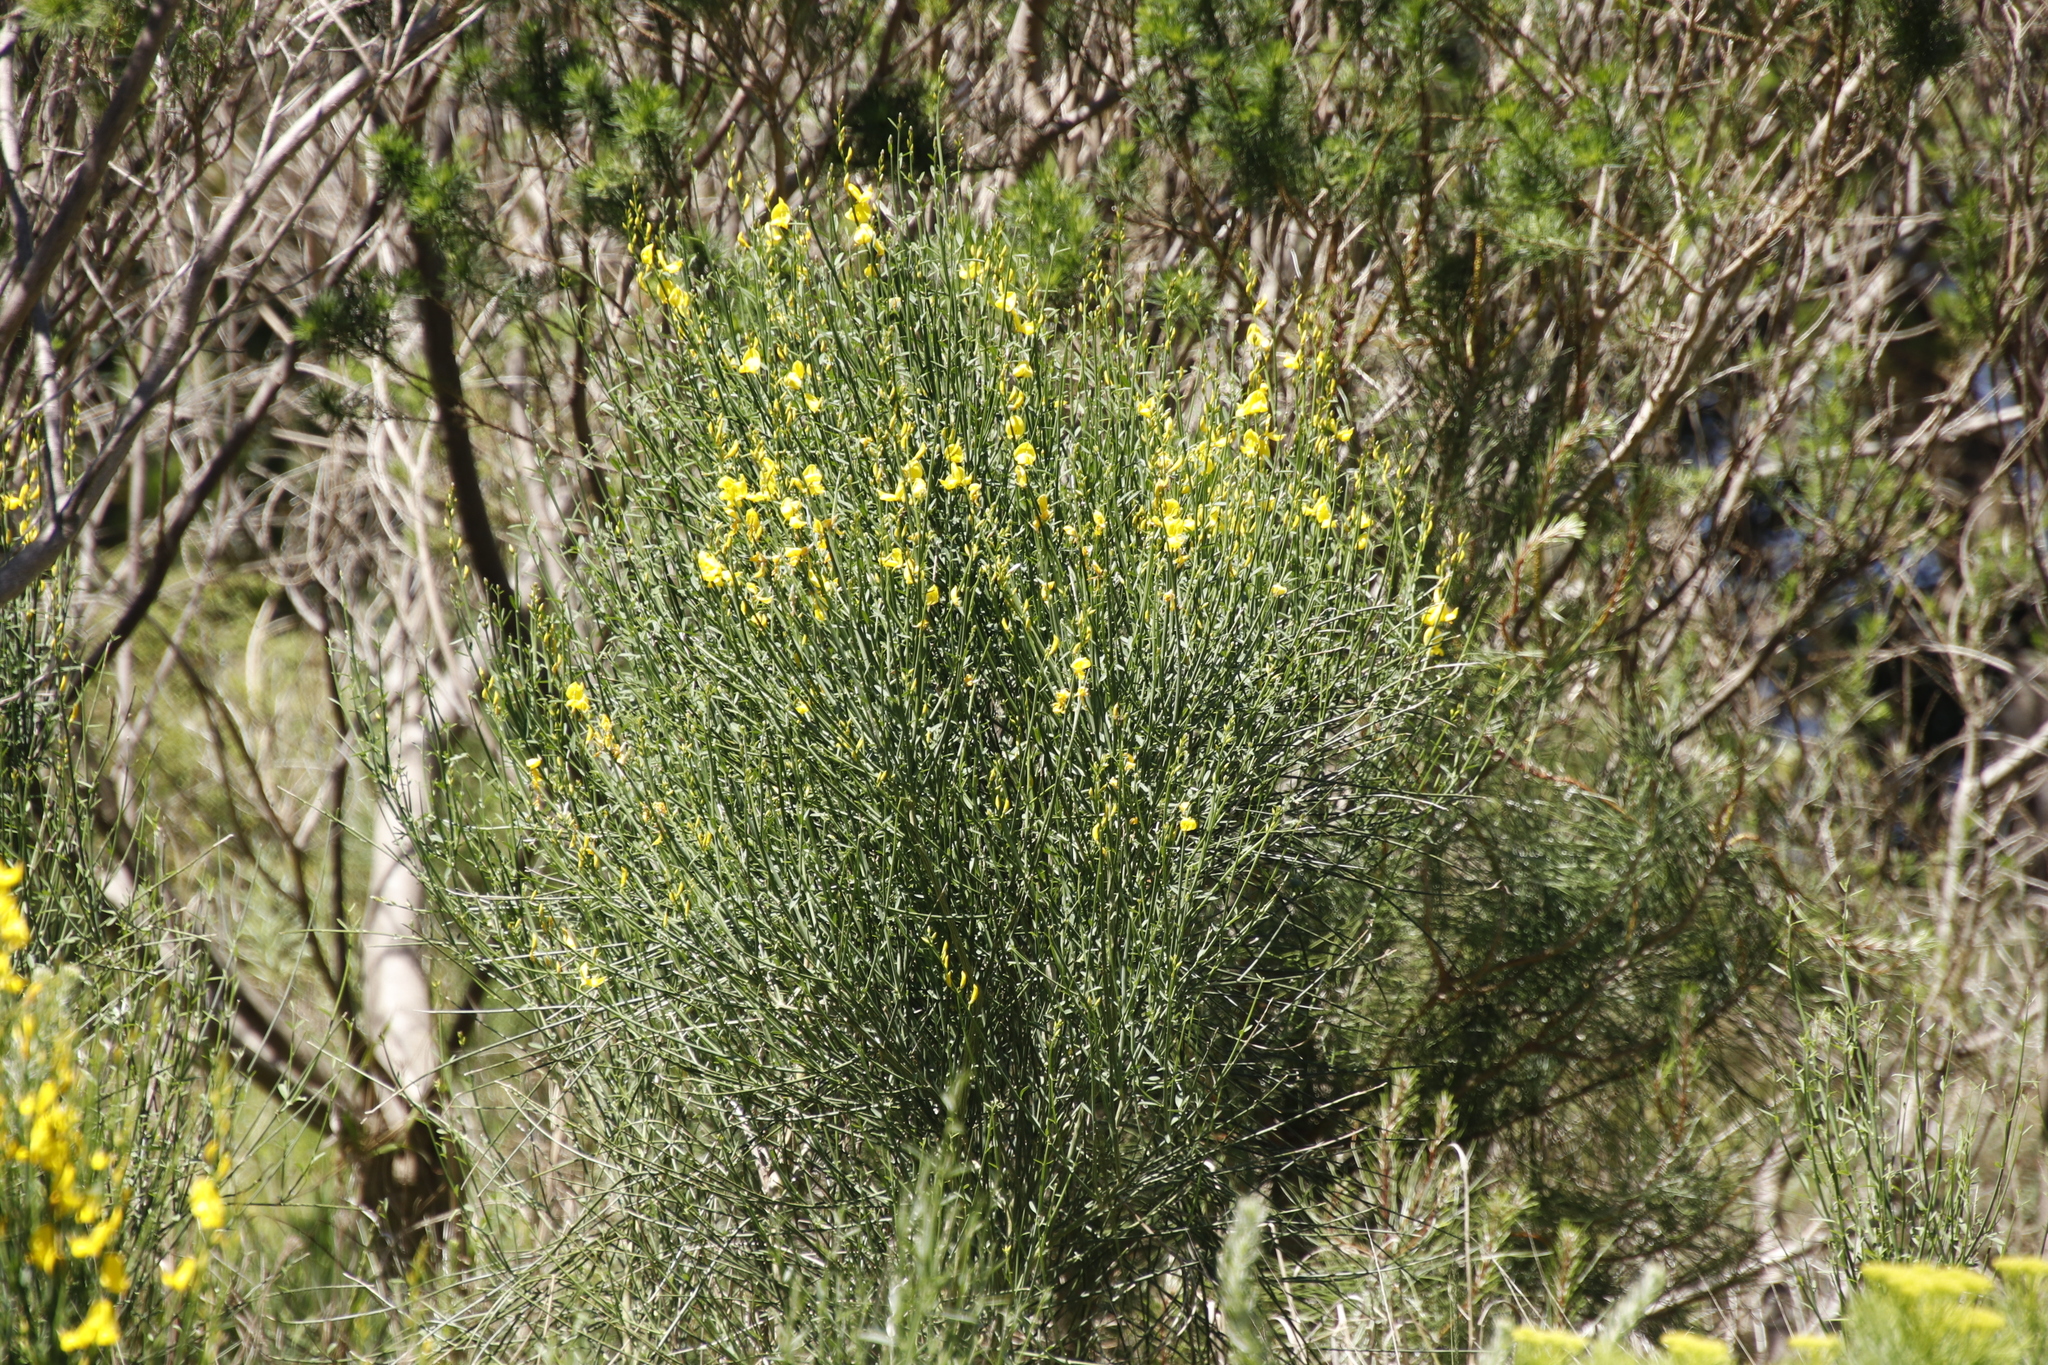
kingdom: Plantae
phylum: Tracheophyta
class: Magnoliopsida
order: Fabales
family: Fabaceae
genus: Spartium
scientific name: Spartium junceum
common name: Spanish broom
